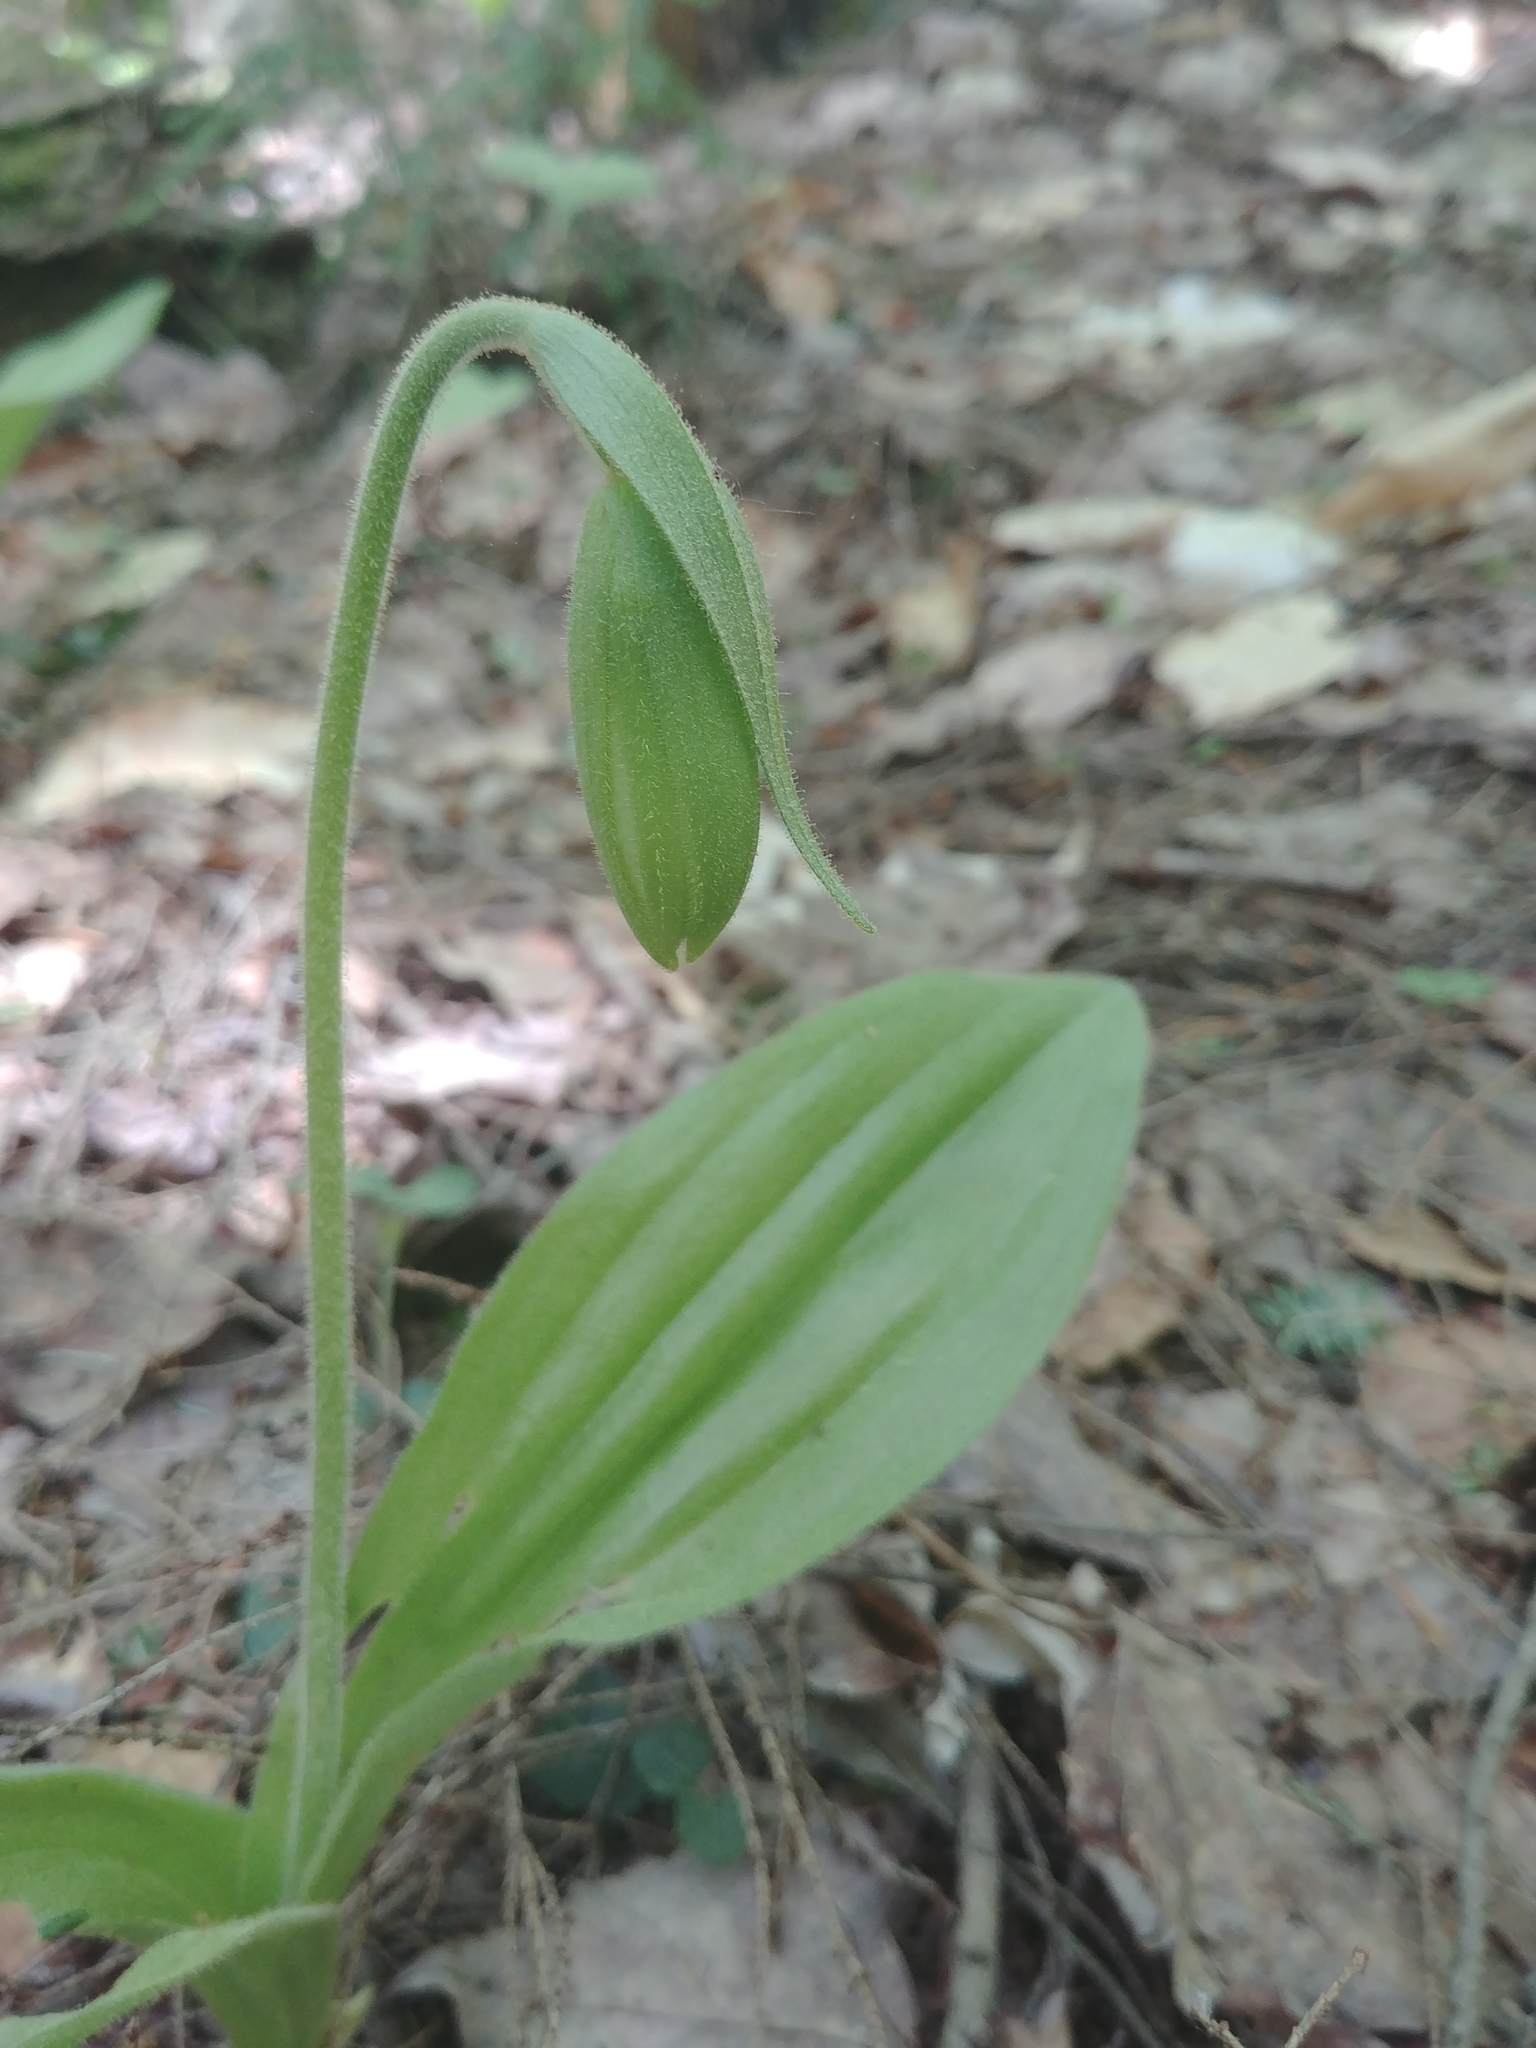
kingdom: Plantae
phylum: Tracheophyta
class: Liliopsida
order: Asparagales
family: Orchidaceae
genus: Cypripedium
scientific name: Cypripedium acaule
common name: Pink lady's-slipper
